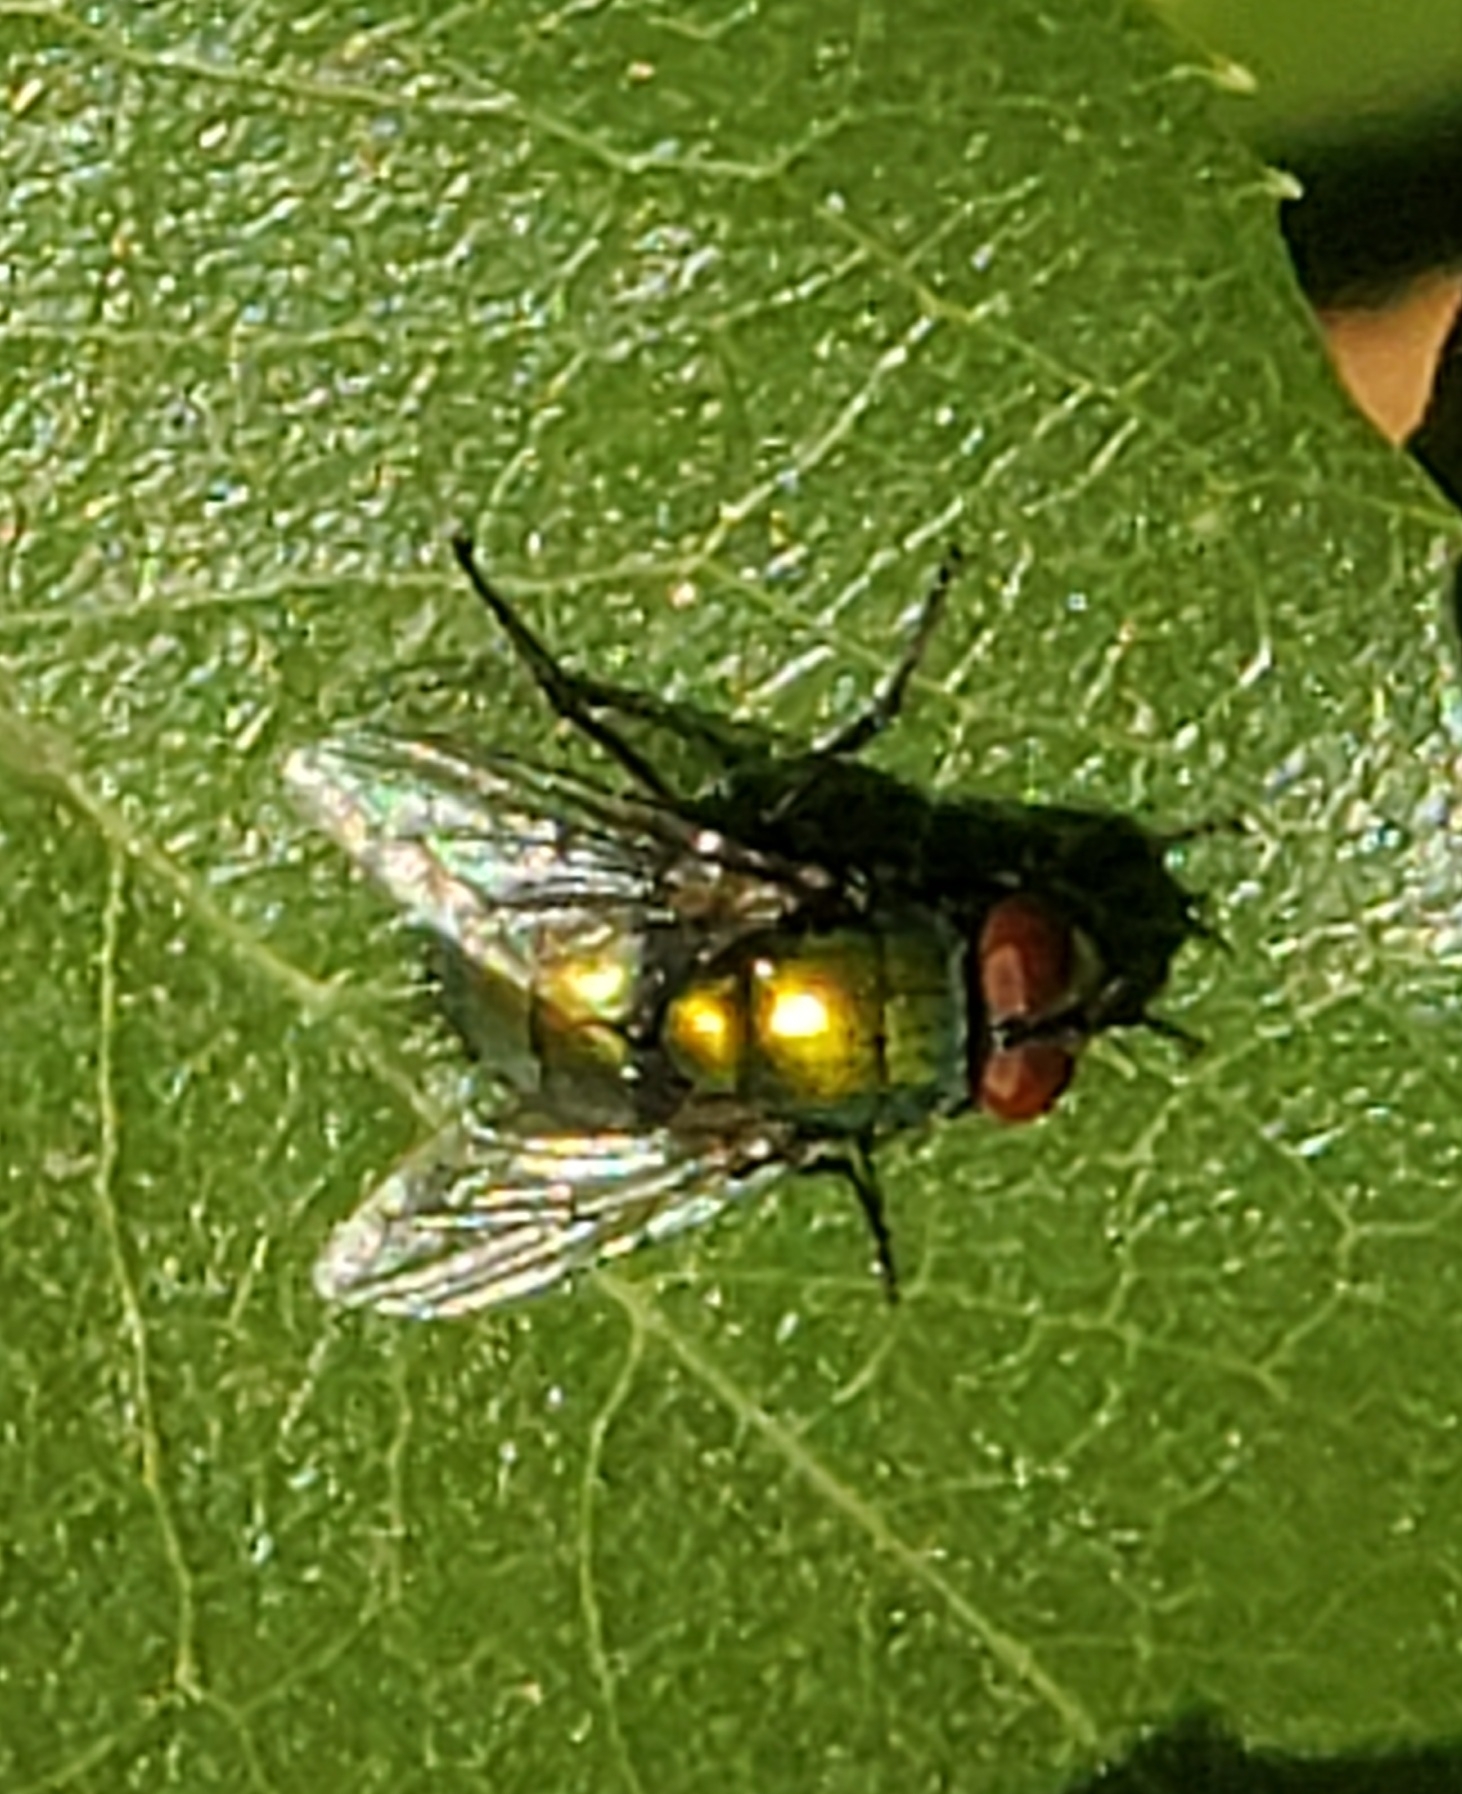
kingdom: Animalia
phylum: Arthropoda
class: Insecta
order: Diptera
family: Calliphoridae
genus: Lucilia
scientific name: Lucilia sericata
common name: Blow fly
